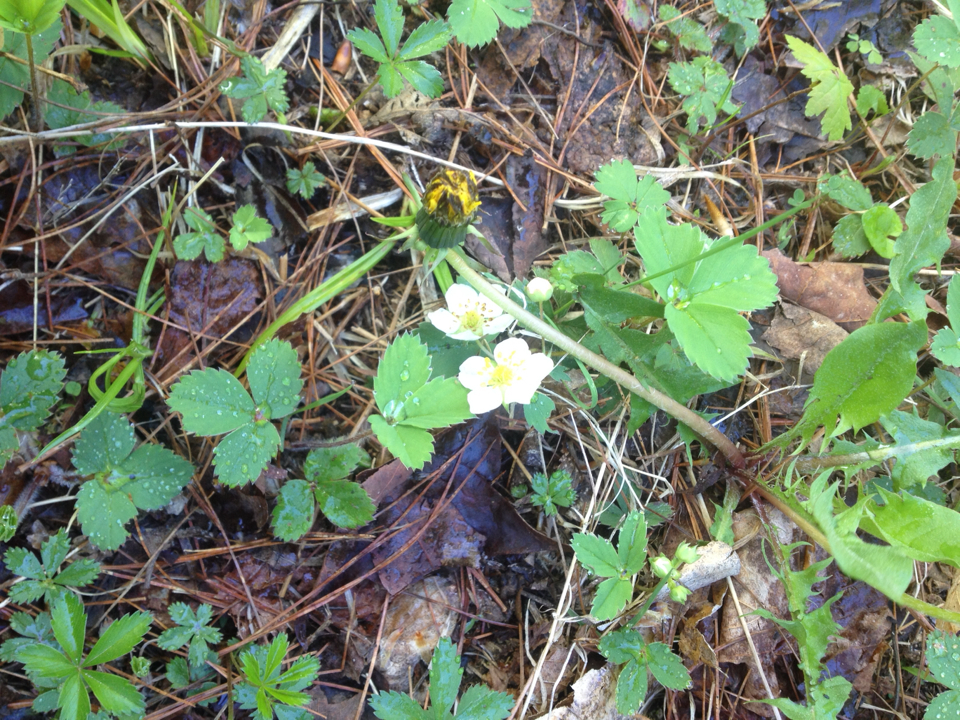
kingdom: Plantae
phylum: Tracheophyta
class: Magnoliopsida
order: Rosales
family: Rosaceae
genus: Fragaria
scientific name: Fragaria vesca
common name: Wild strawberry
